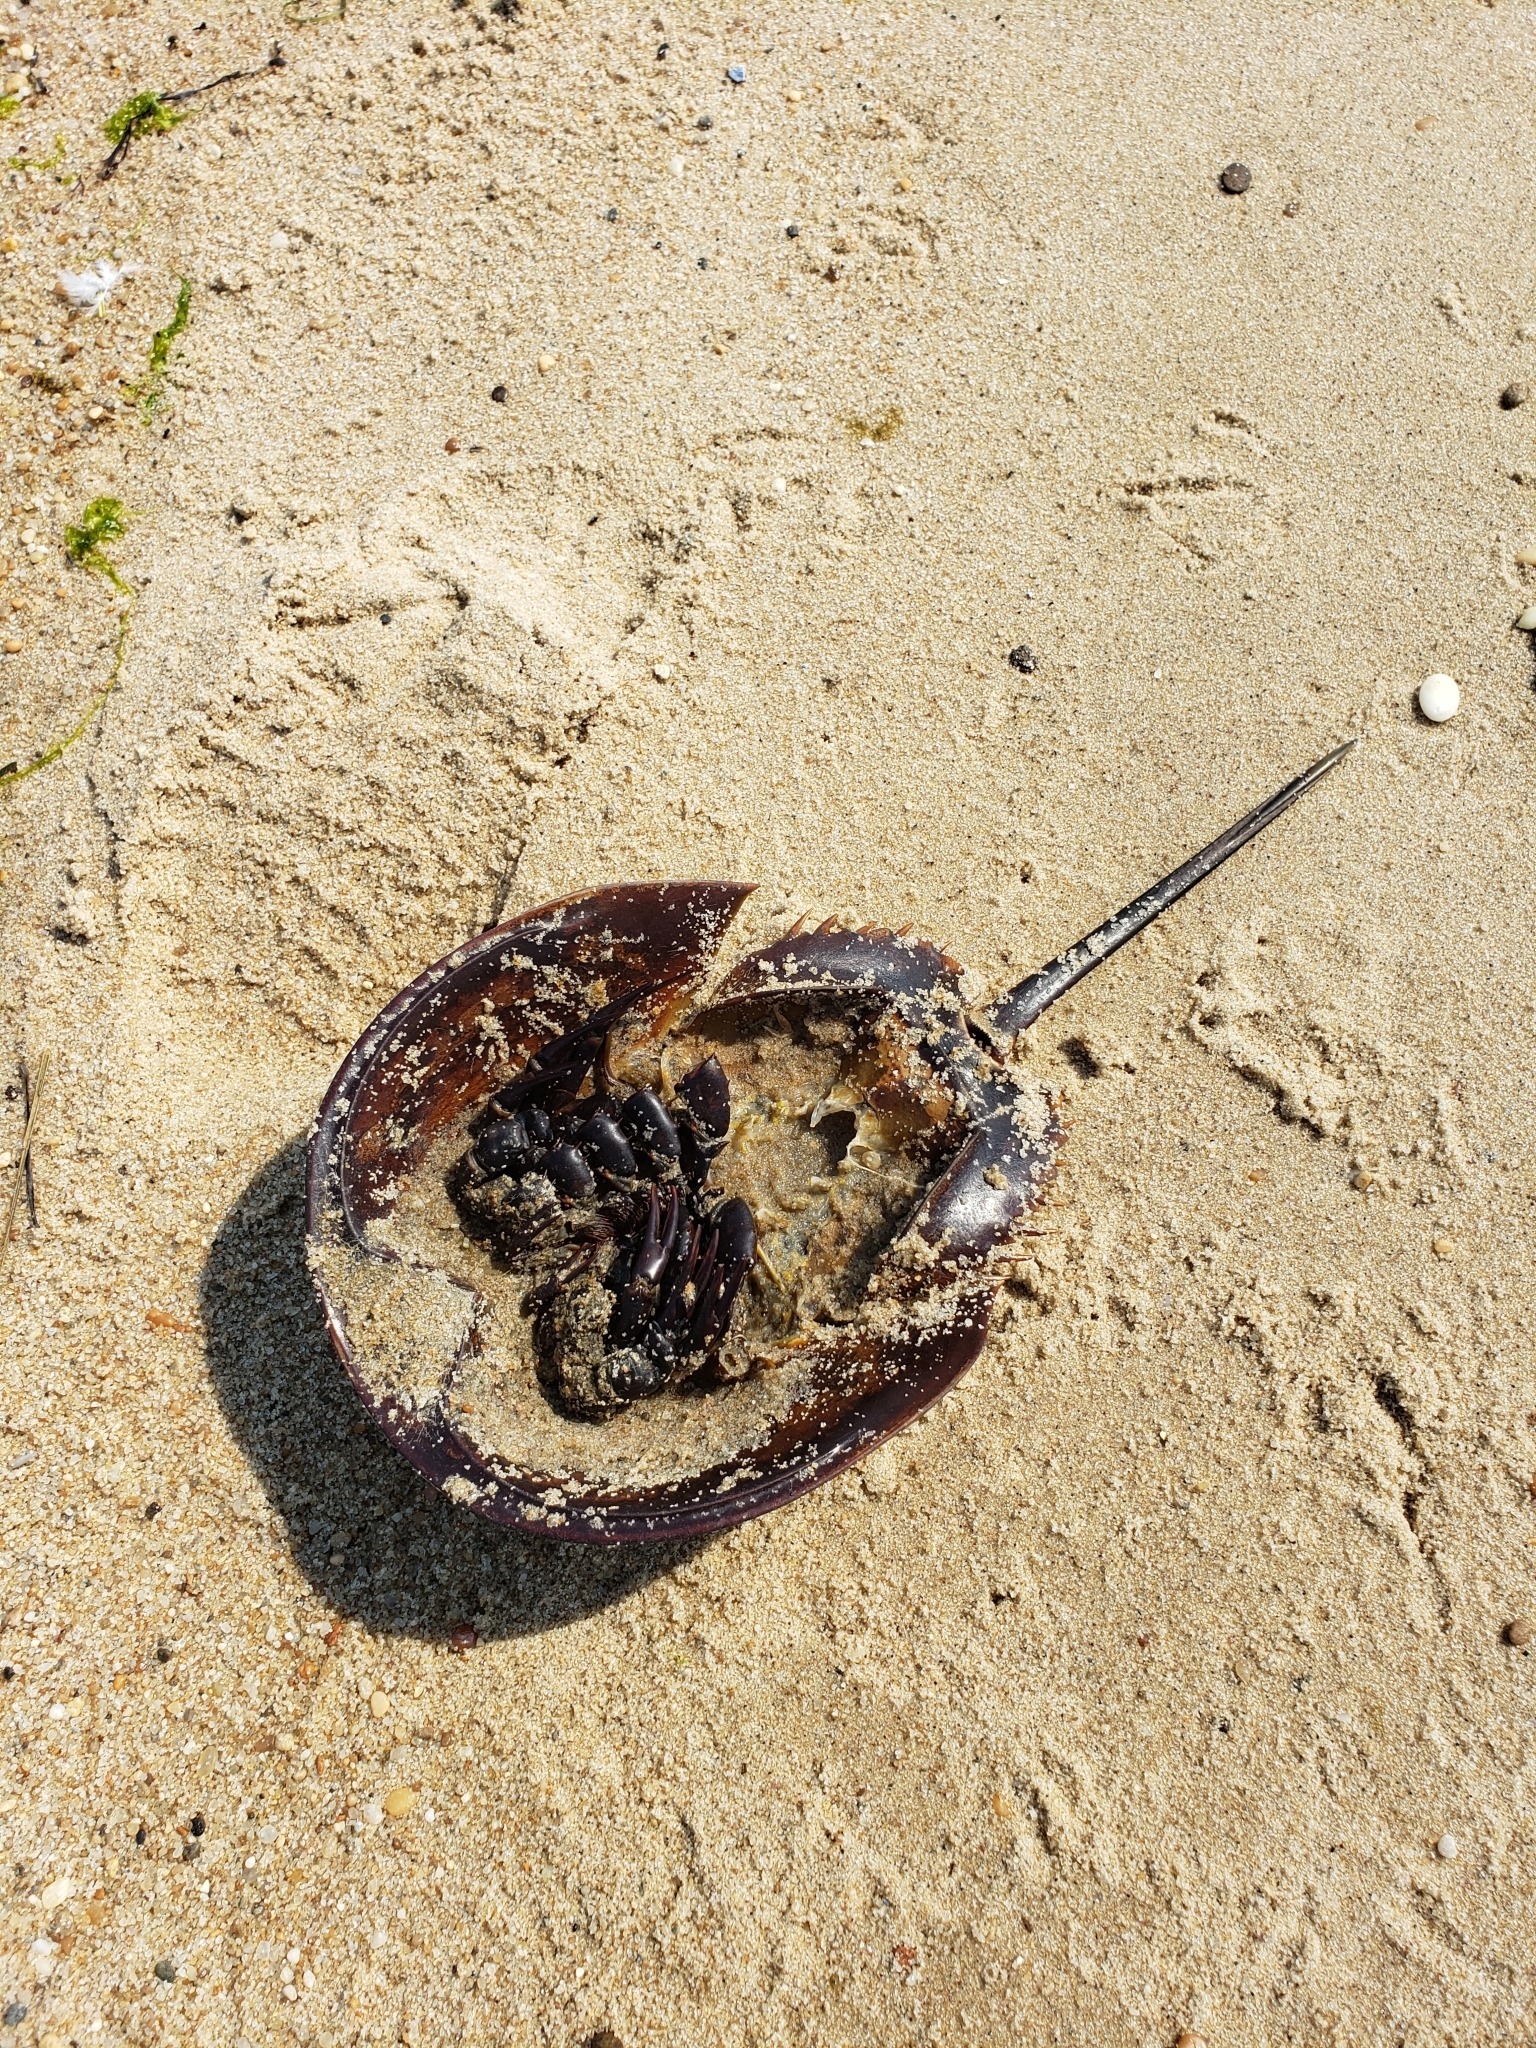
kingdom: Animalia
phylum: Arthropoda
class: Merostomata
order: Xiphosurida
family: Limulidae
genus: Limulus
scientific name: Limulus polyphemus
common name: Horseshoe crab
